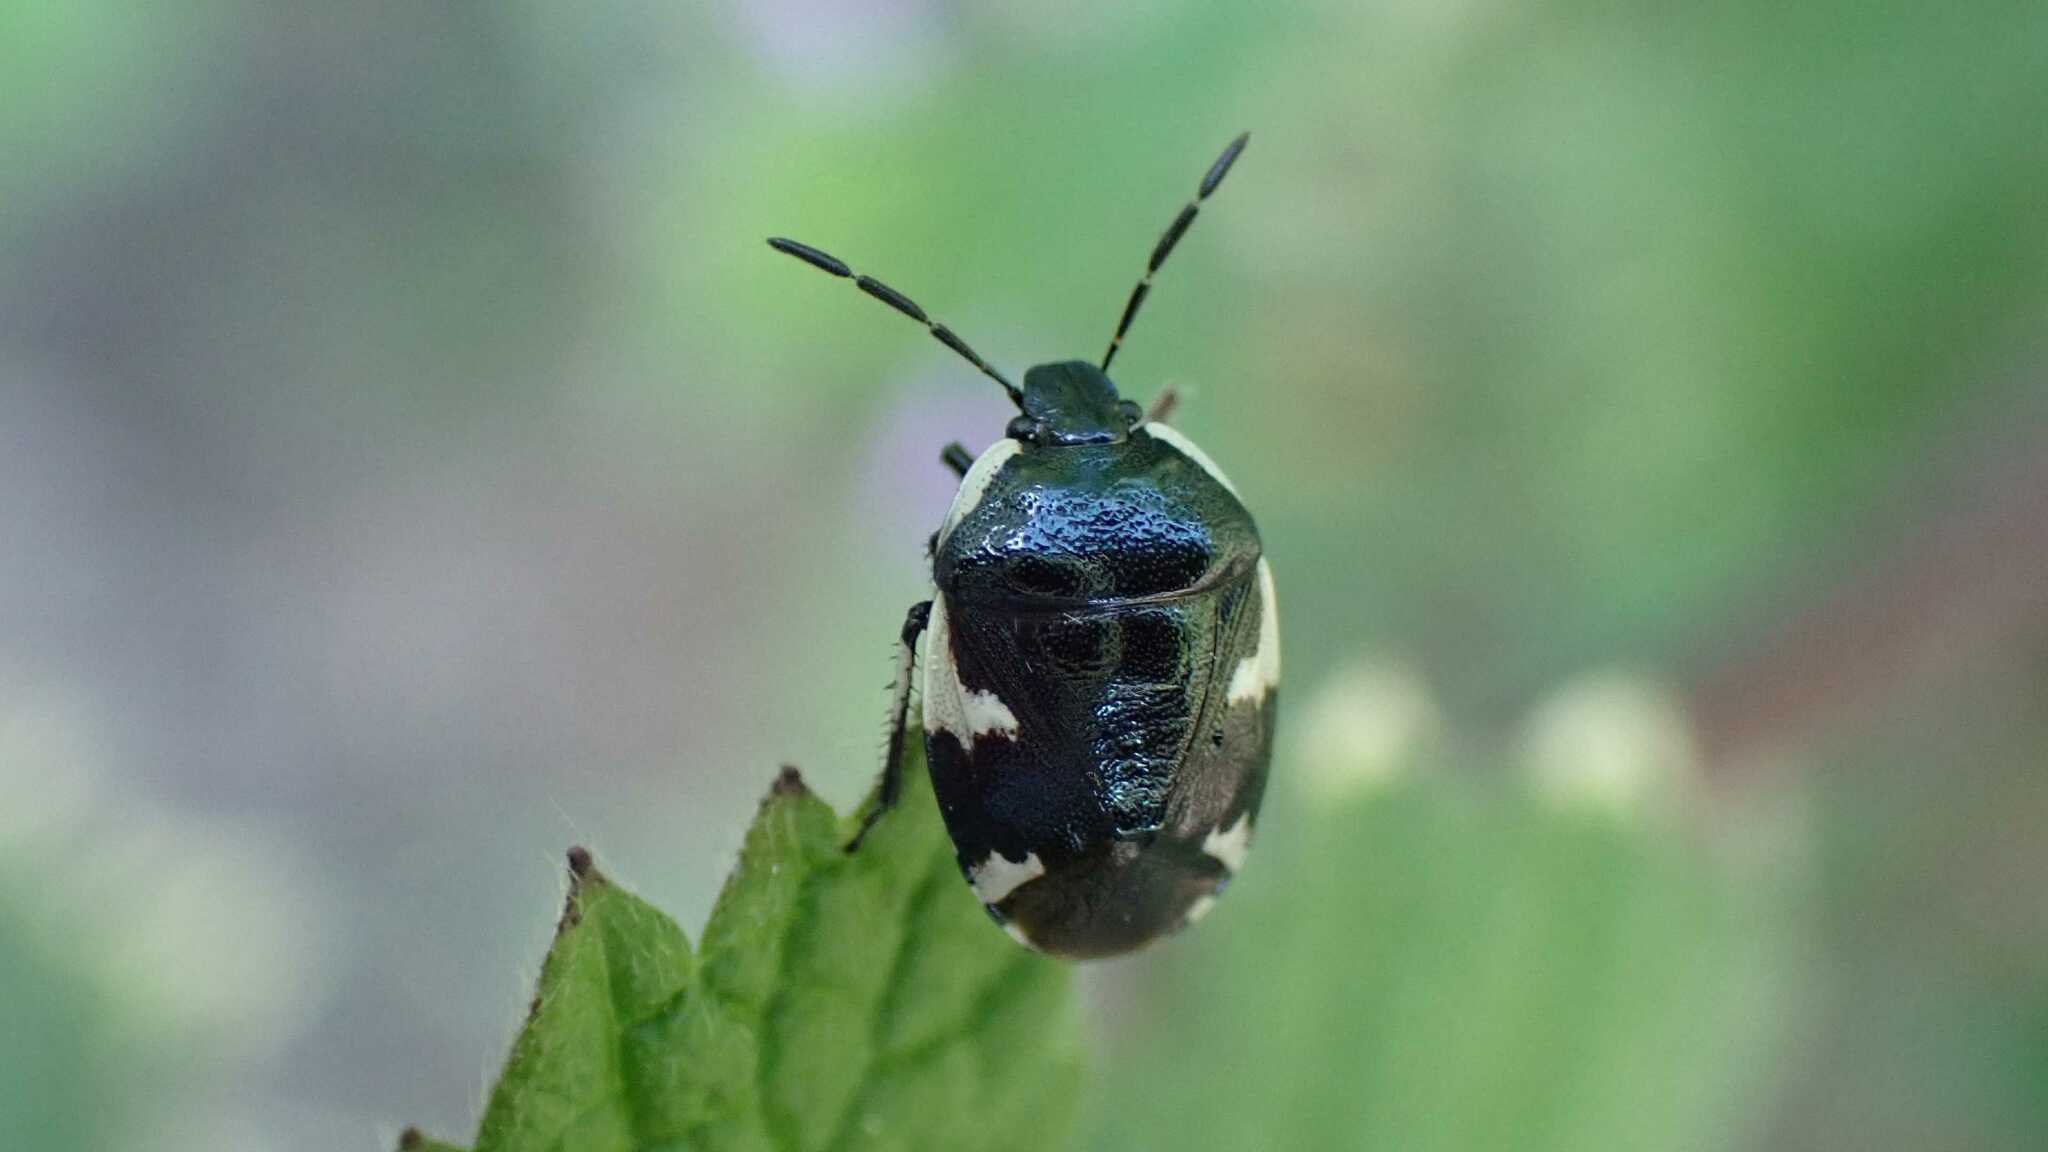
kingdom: Animalia
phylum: Arthropoda
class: Insecta
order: Hemiptera
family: Cydnidae
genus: Tritomegas
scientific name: Tritomegas sexmaculatus
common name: Rambur's pied shieldbug
